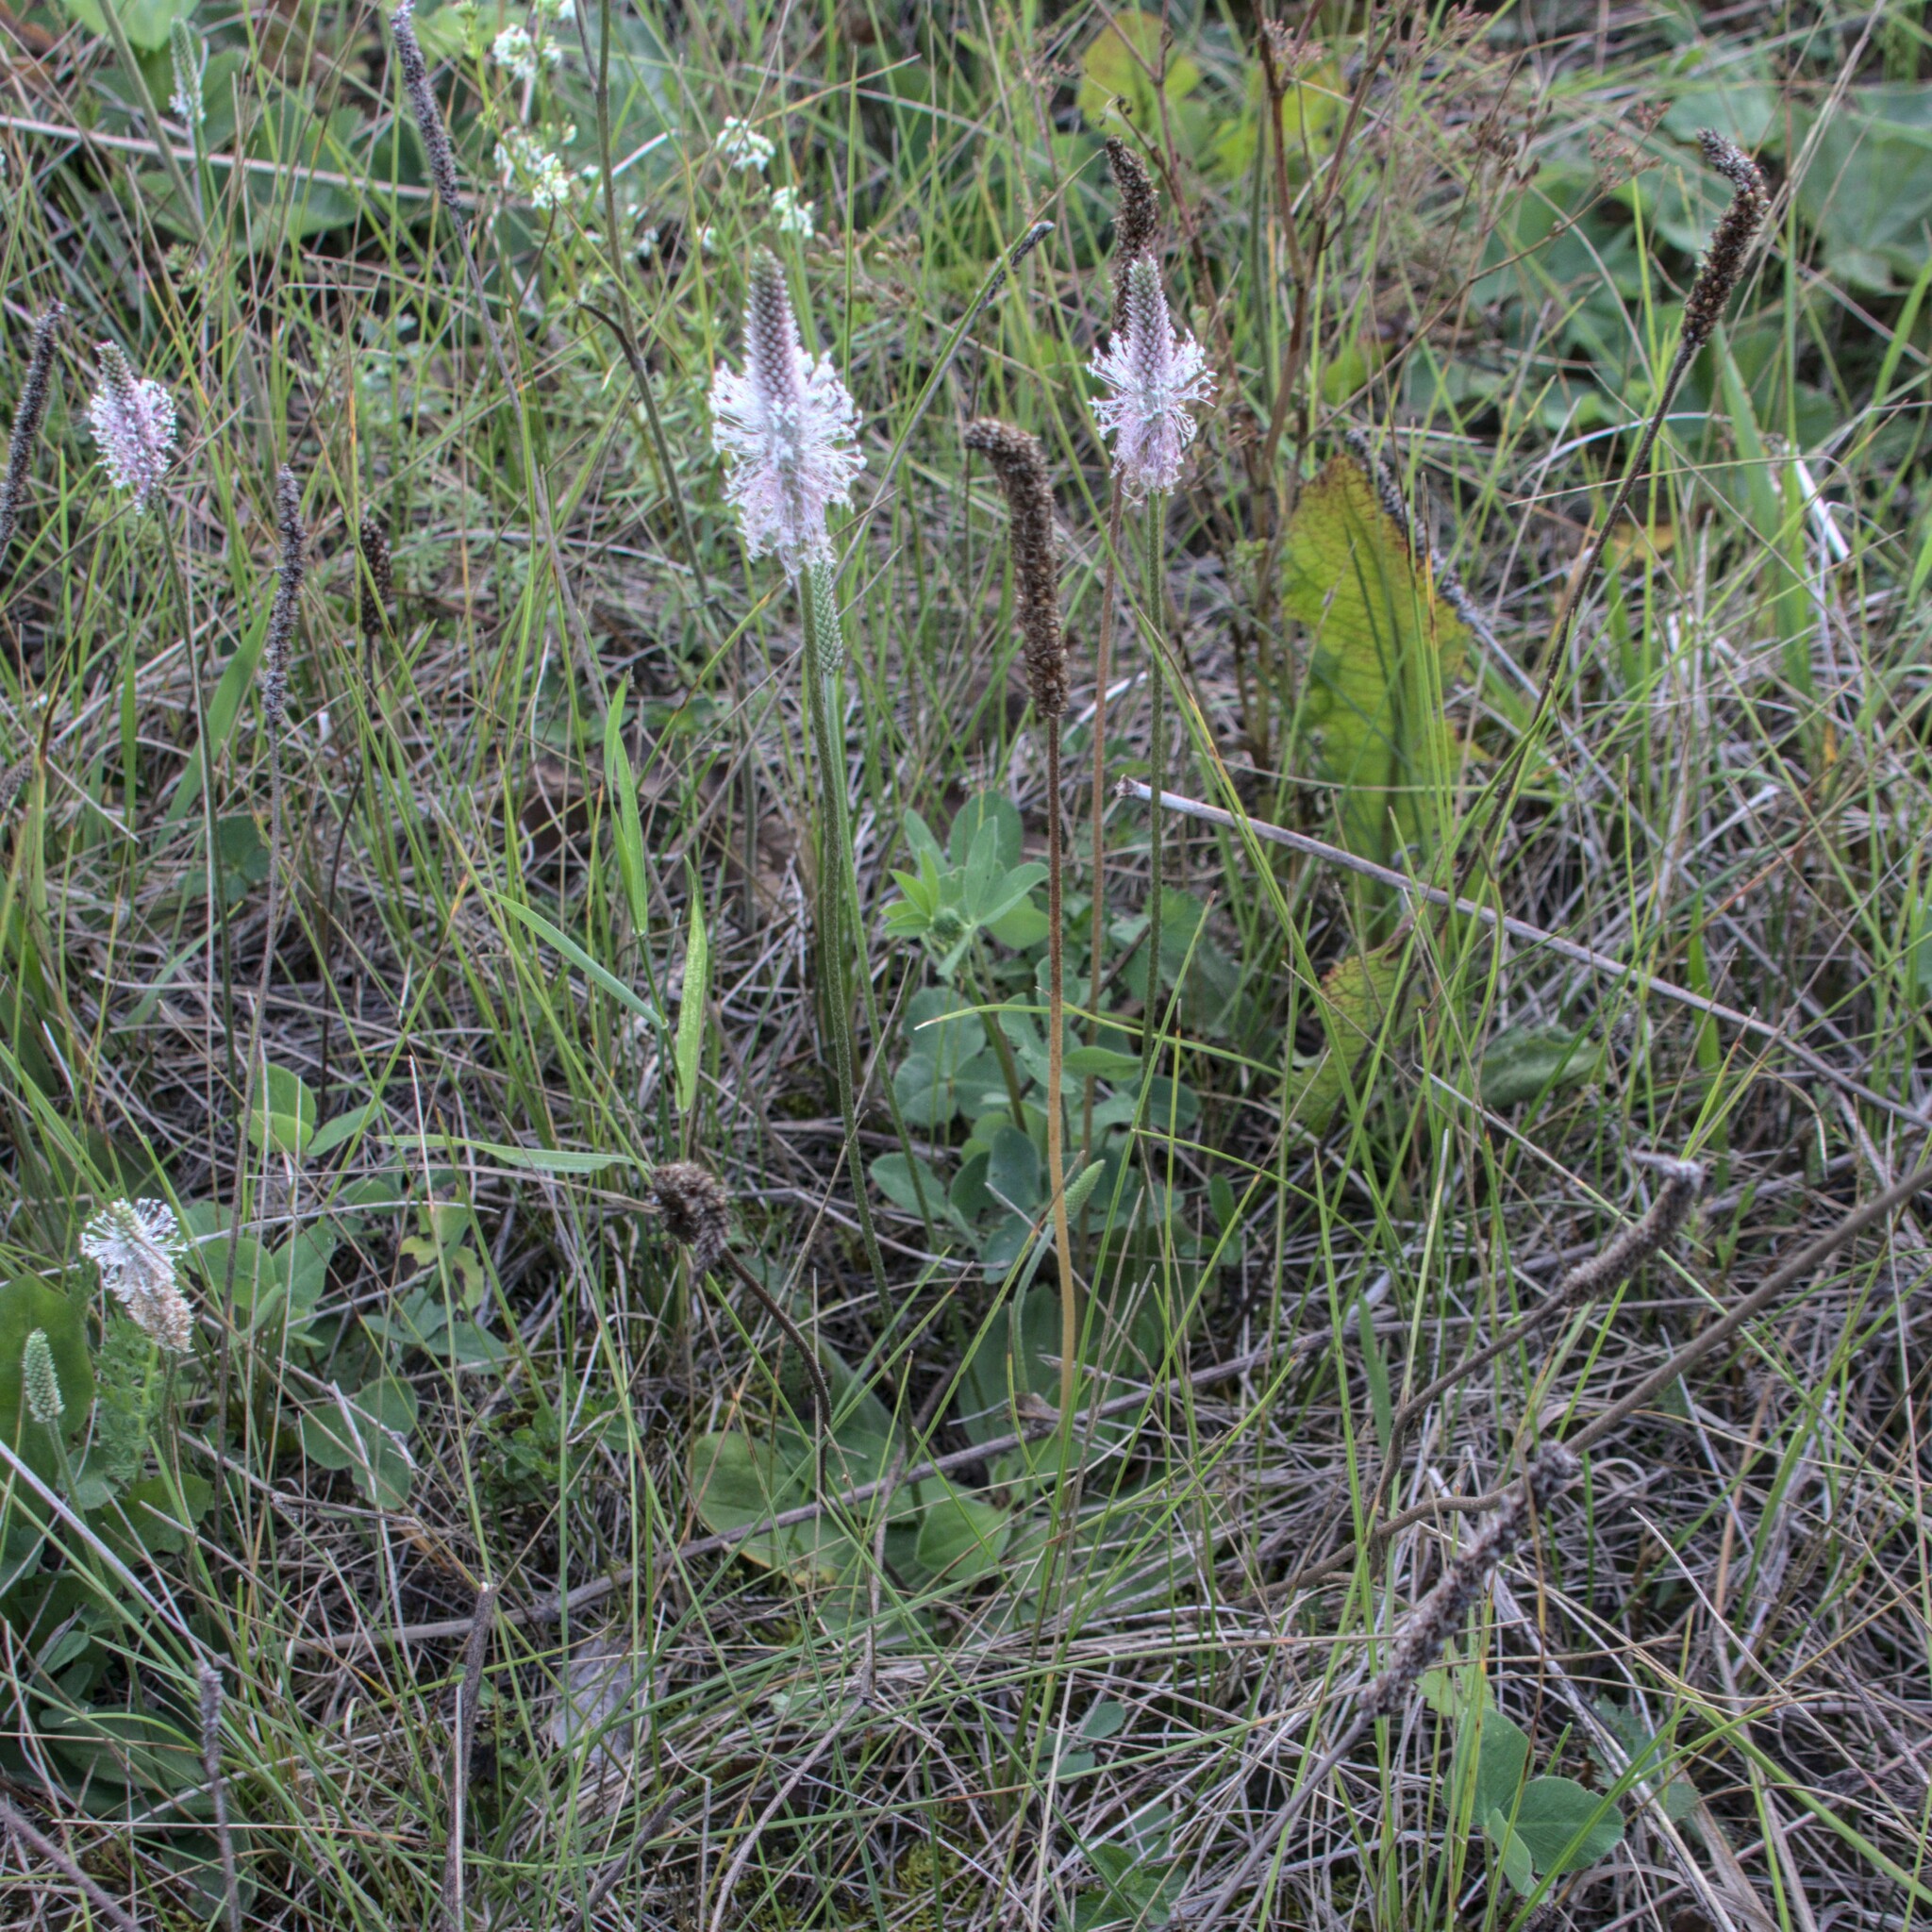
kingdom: Plantae
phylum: Tracheophyta
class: Magnoliopsida
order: Lamiales
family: Plantaginaceae
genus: Plantago
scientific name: Plantago media
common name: Hoary plantain
